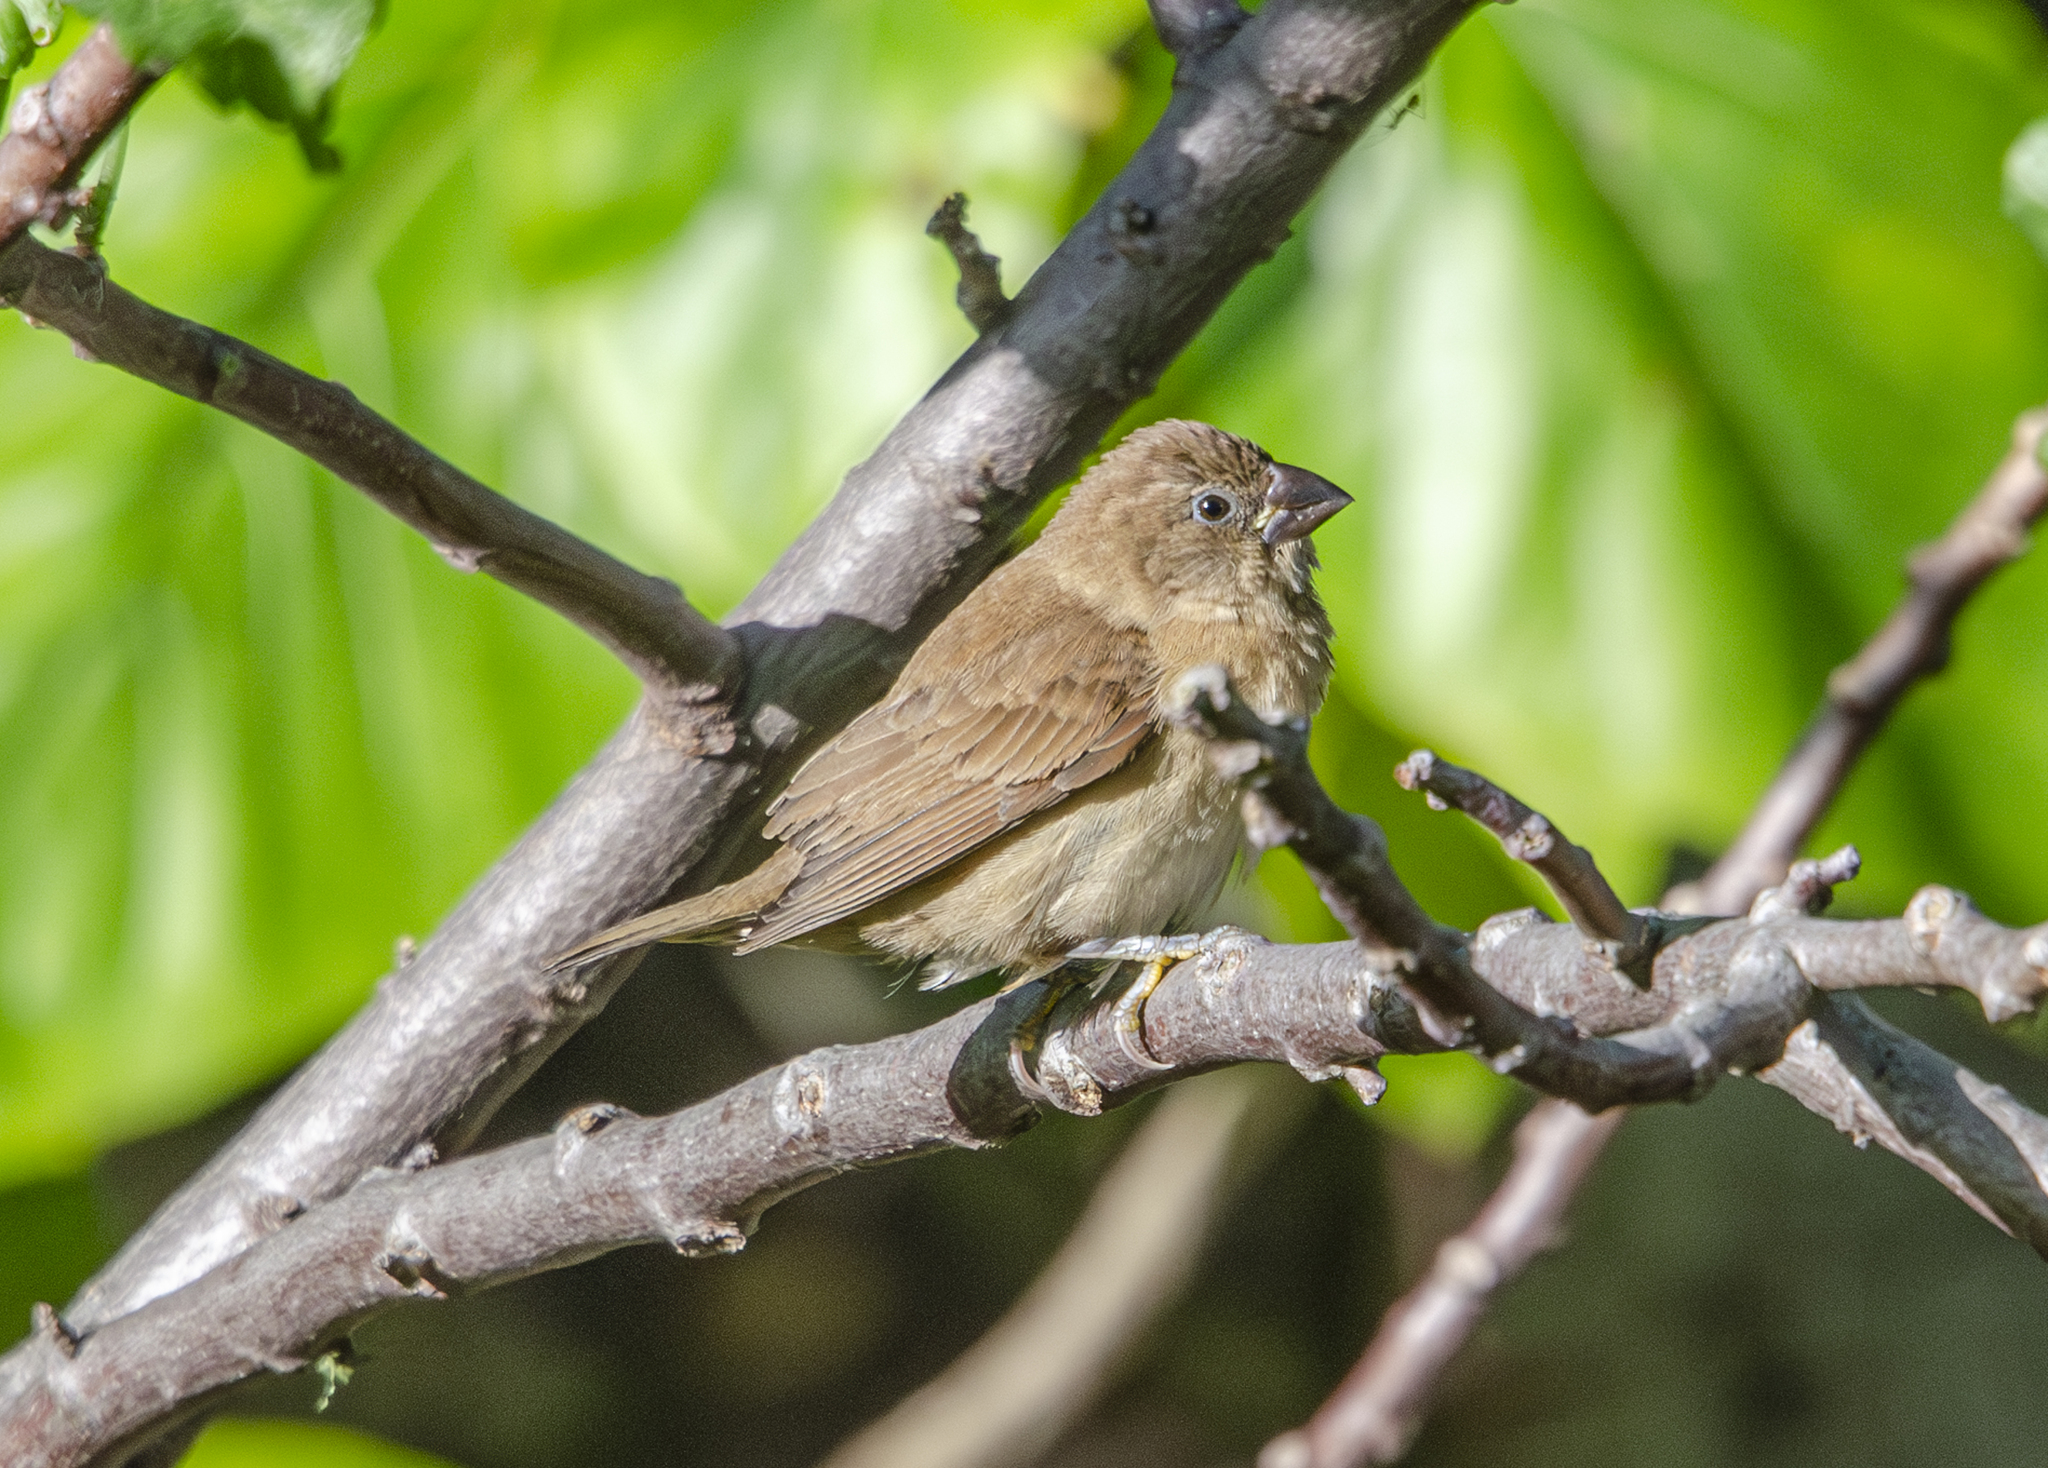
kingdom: Animalia
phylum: Chordata
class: Aves
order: Passeriformes
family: Estrildidae
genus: Lonchura
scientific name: Lonchura punctulata
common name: Scaly-breasted munia
